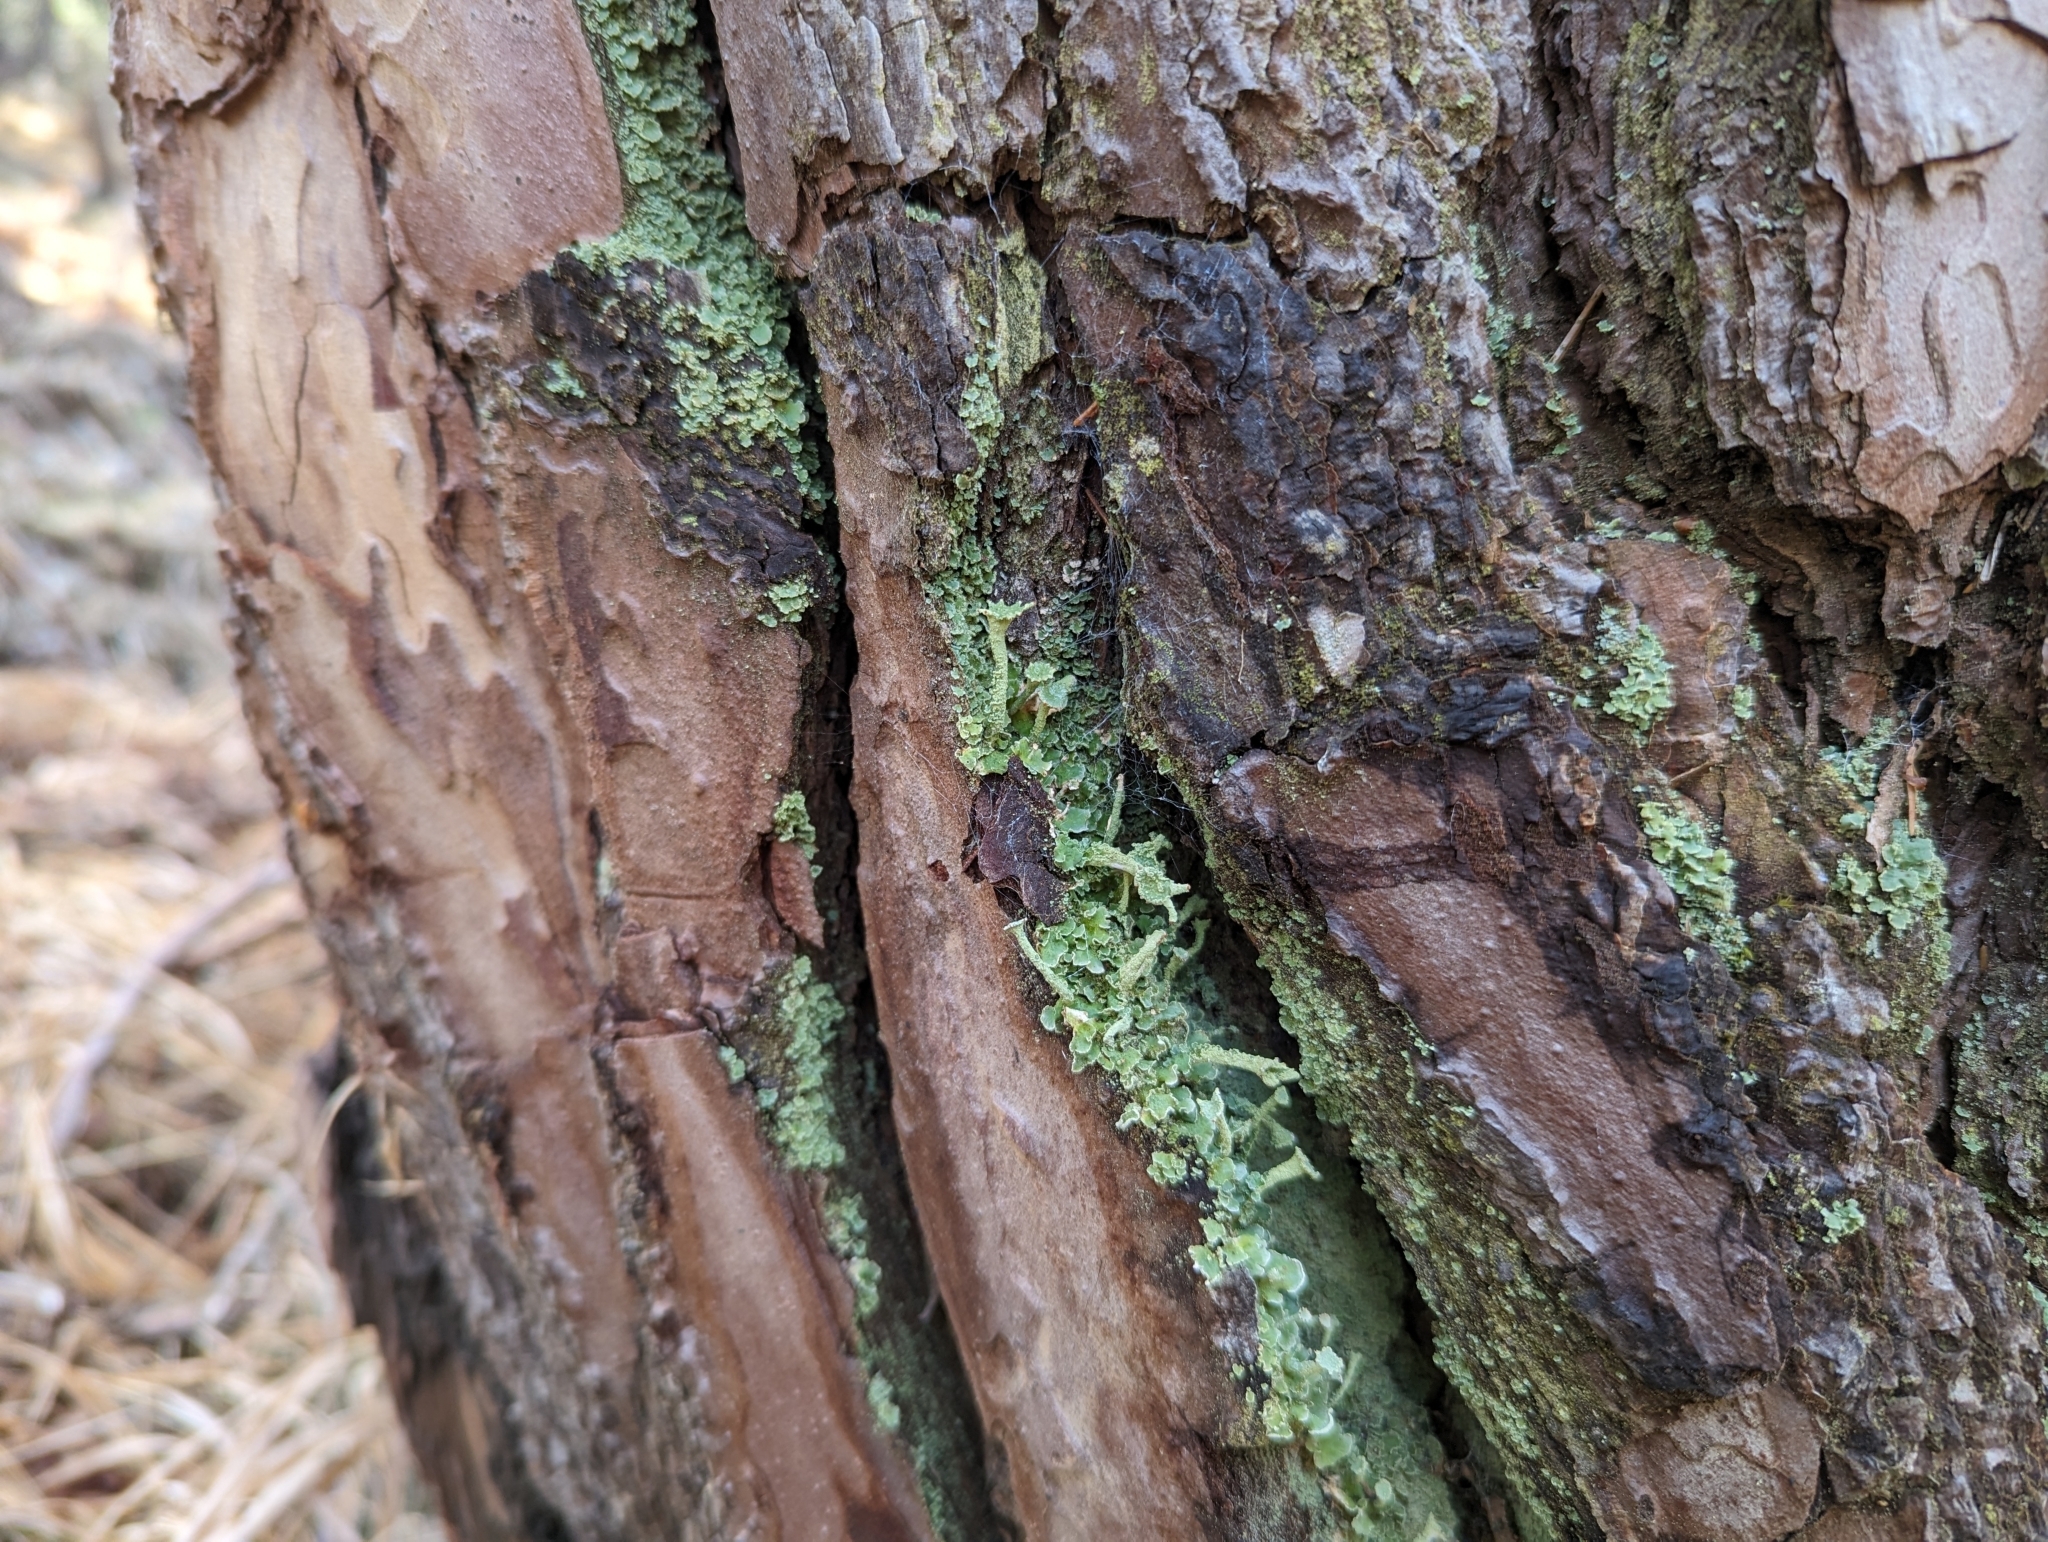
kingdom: Fungi
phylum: Ascomycota
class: Lecanoromycetes
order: Lecanorales
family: Cladoniaceae
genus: Cladonia
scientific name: Cladonia digitata
